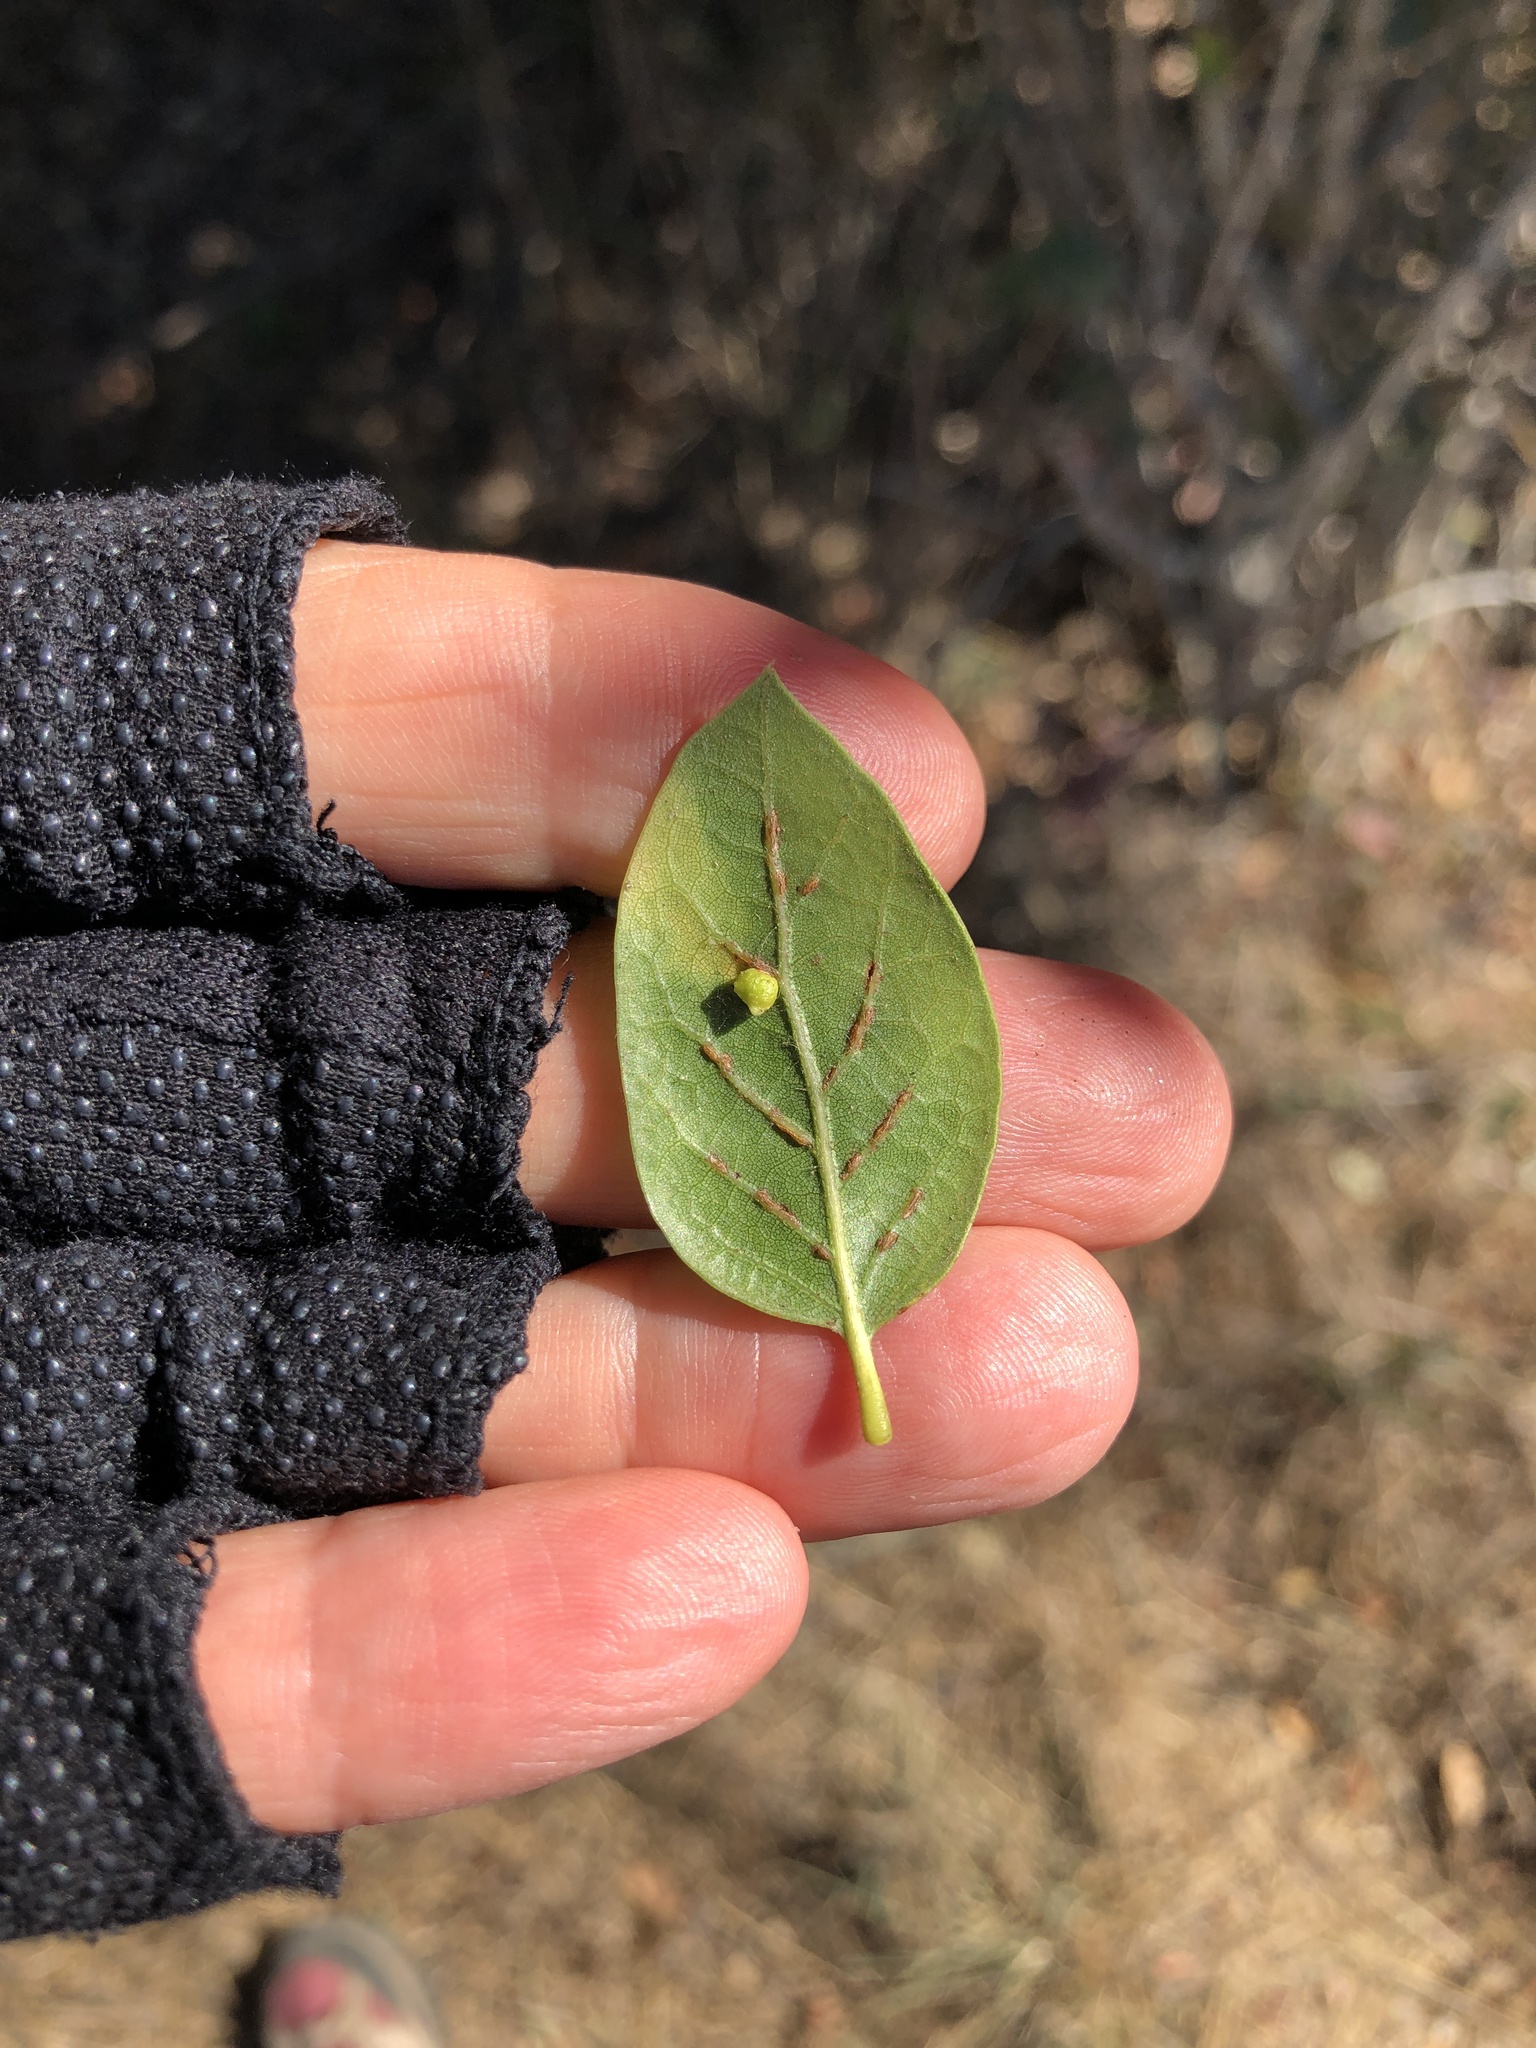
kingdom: Animalia
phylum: Arthropoda
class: Insecta
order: Hymenoptera
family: Cynipidae
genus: Dryocosmus
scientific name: Dryocosmus
